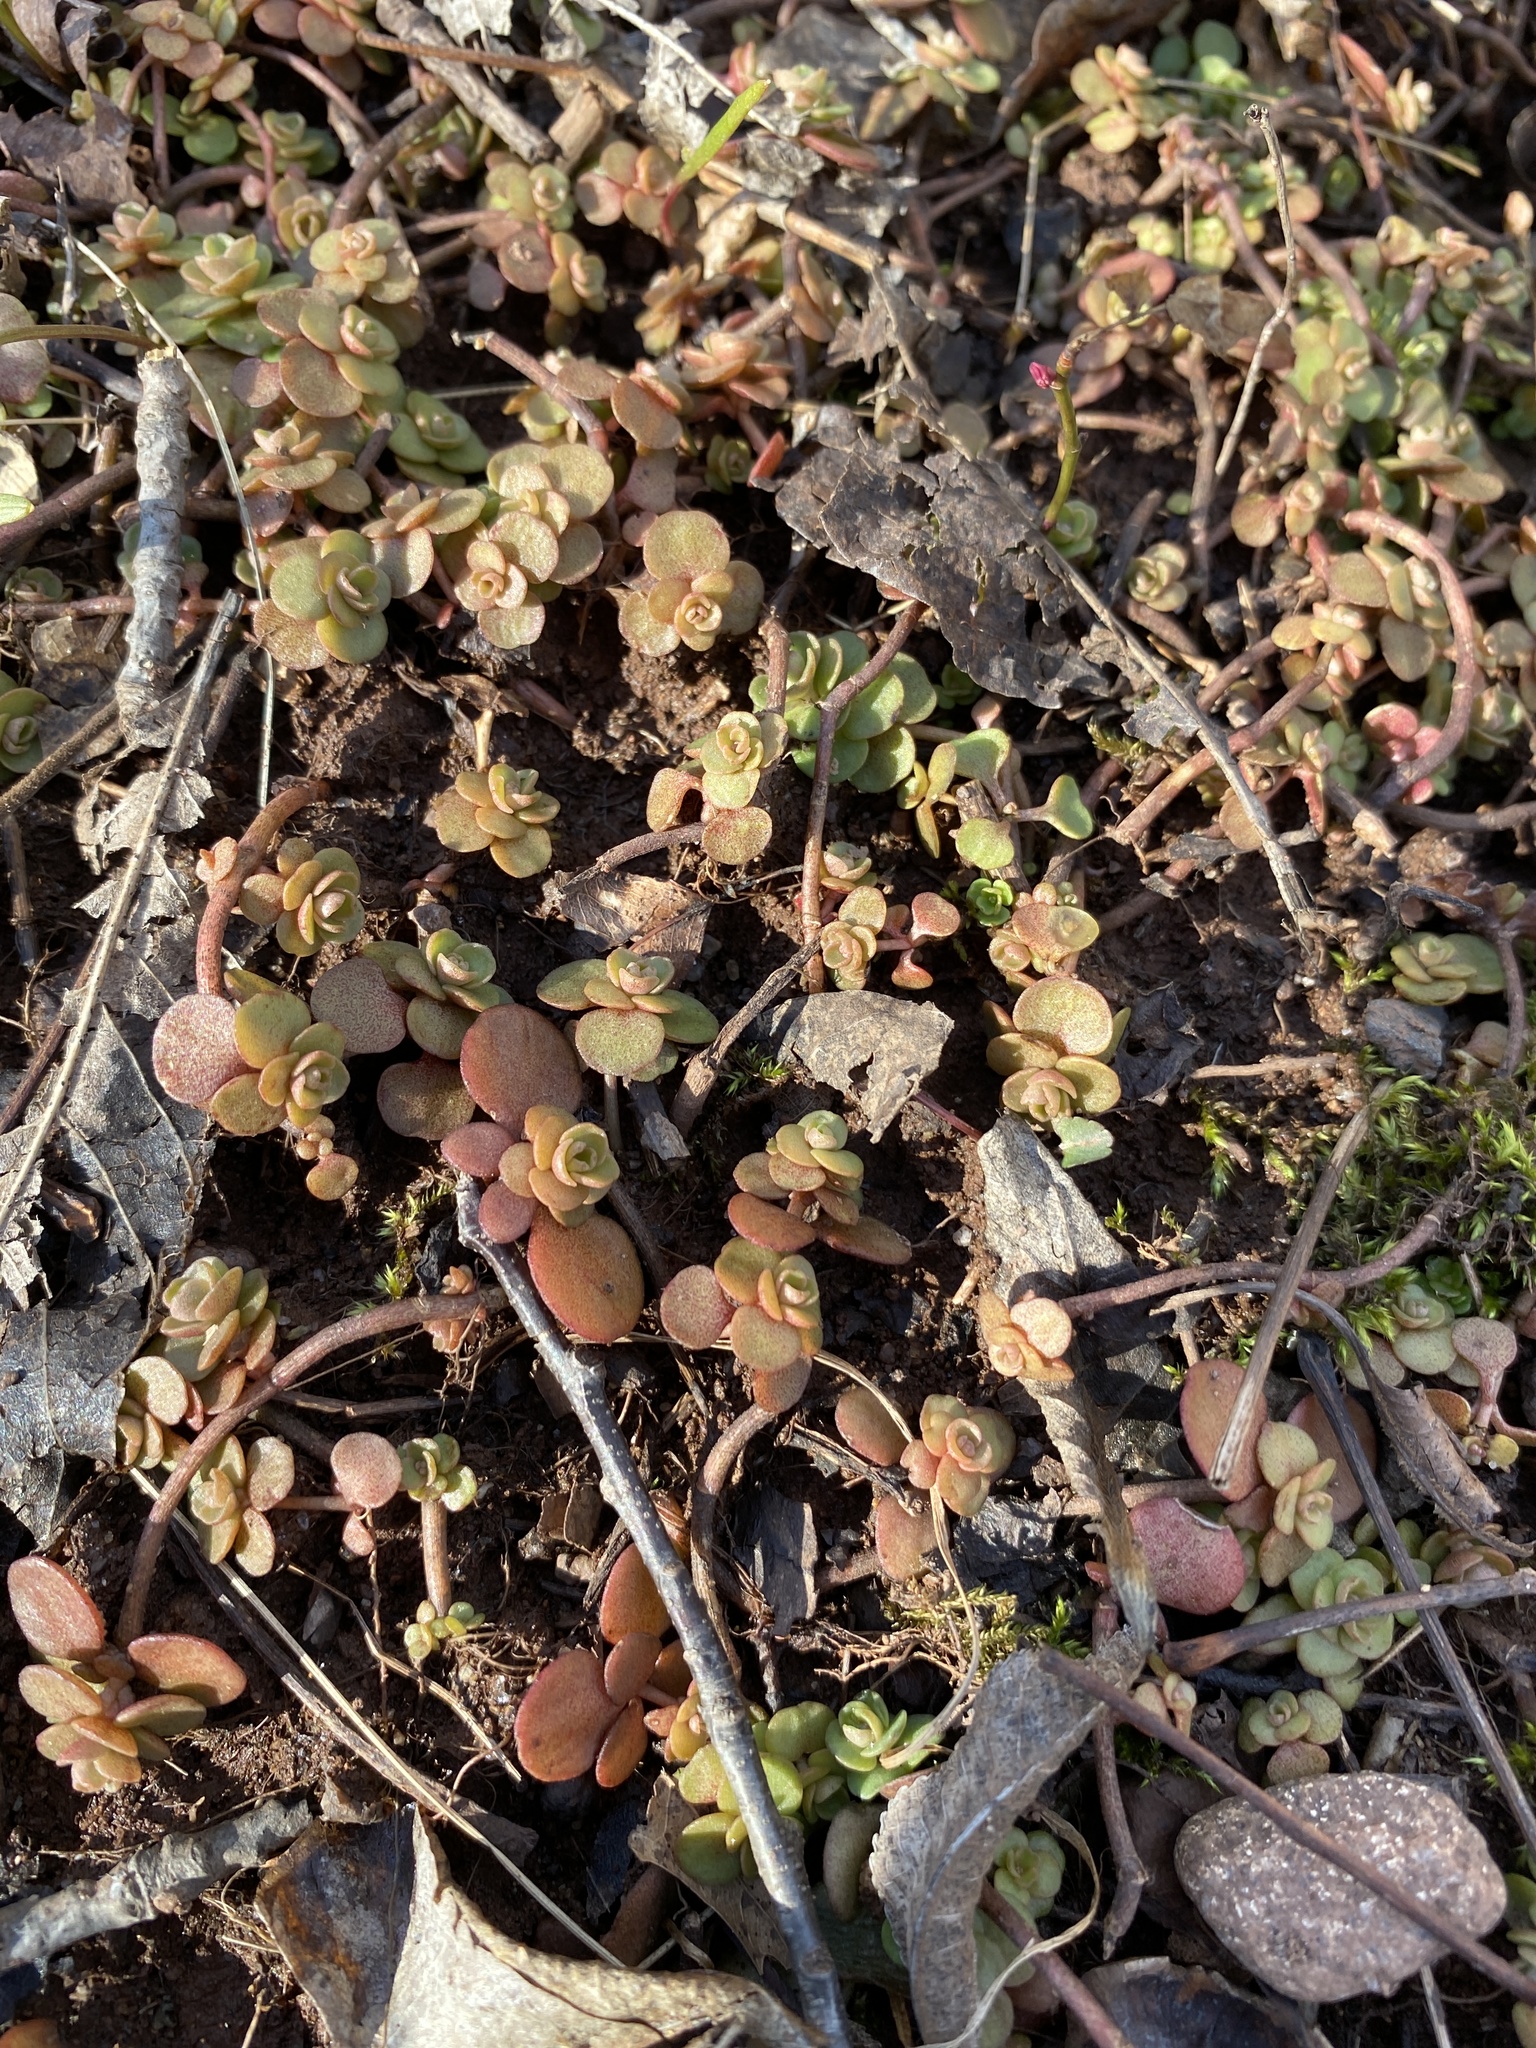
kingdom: Plantae
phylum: Tracheophyta
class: Magnoliopsida
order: Saxifragales
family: Crassulaceae
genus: Sedum
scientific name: Sedum ternatum
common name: Wild stonecrop
